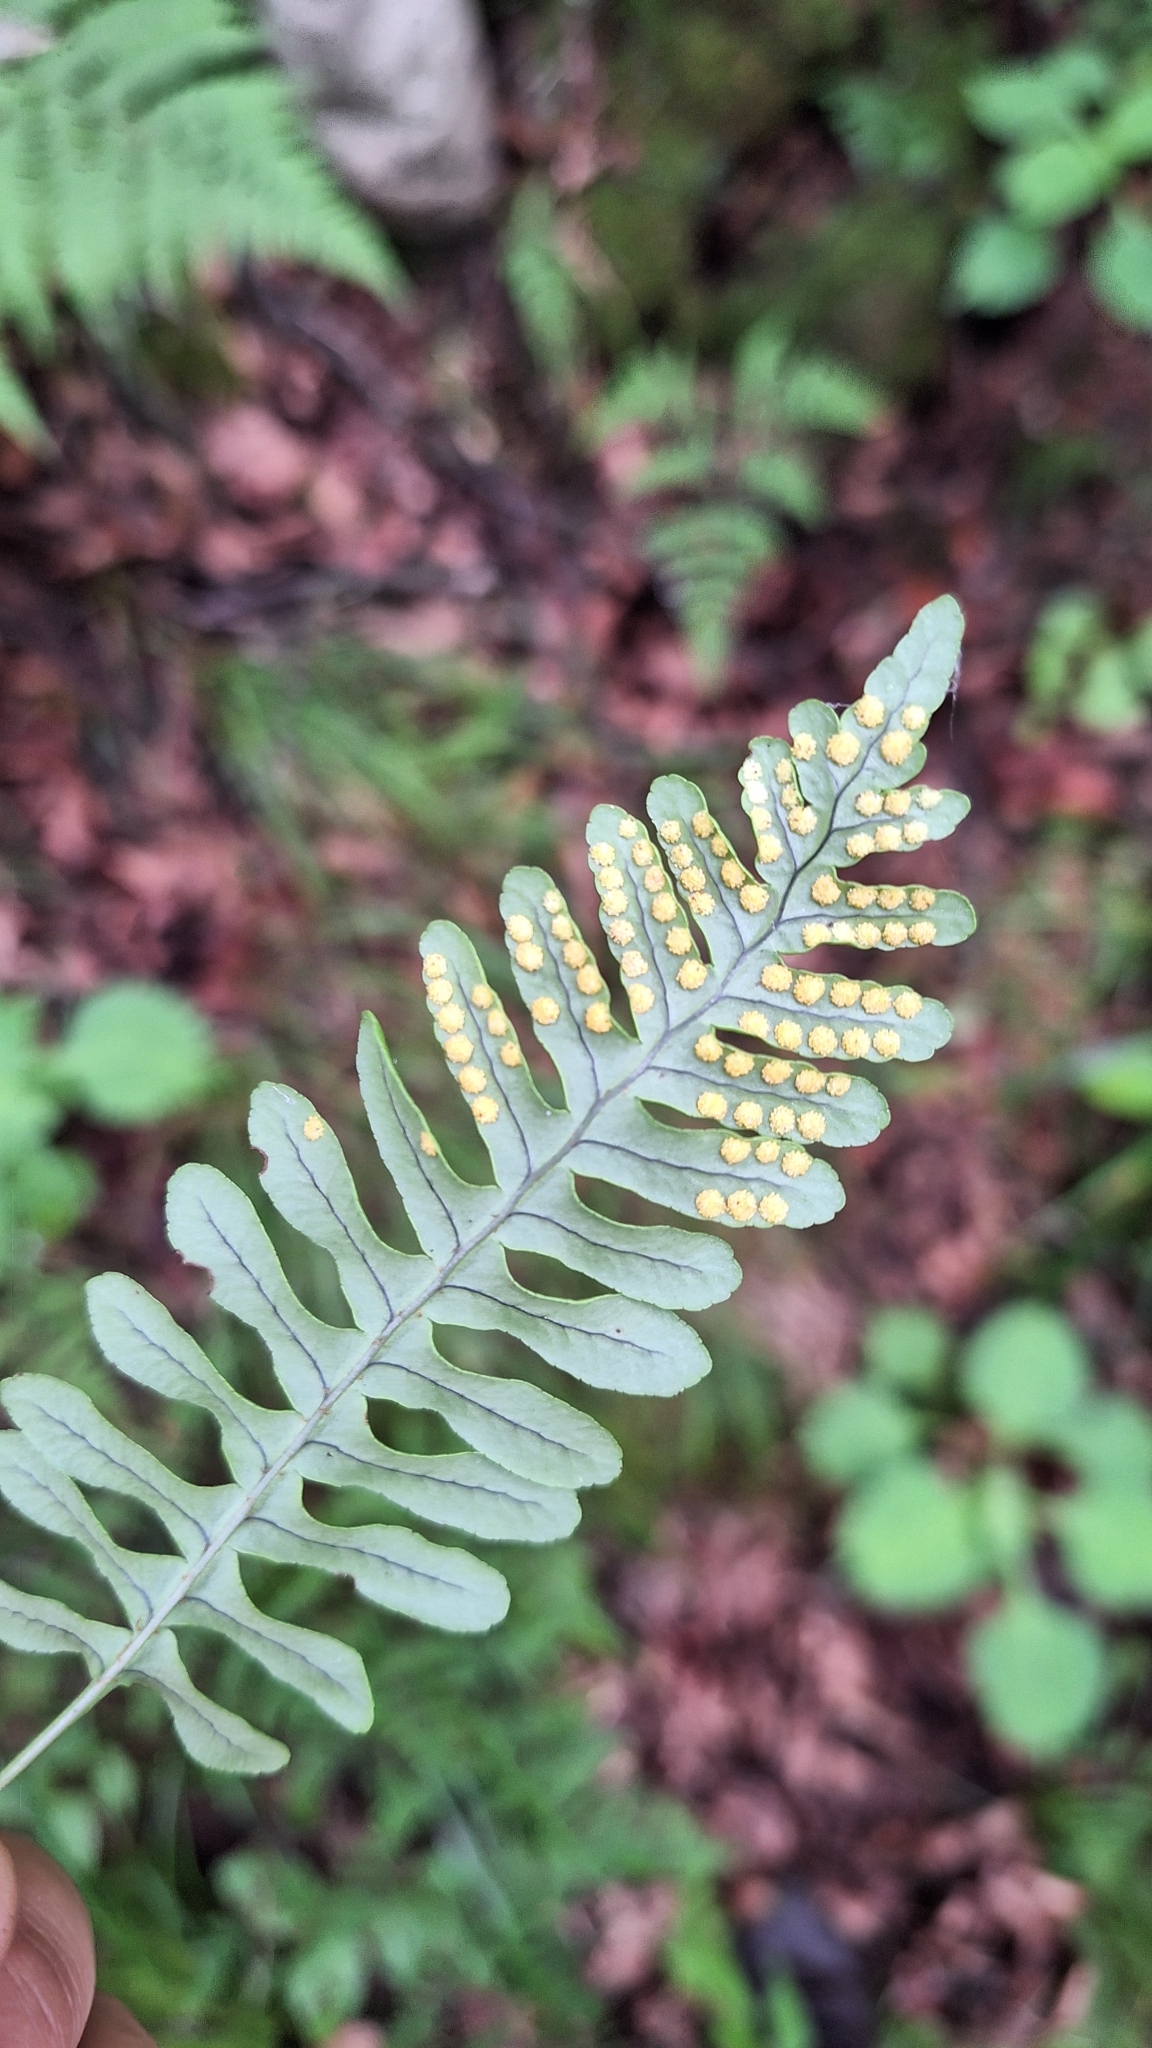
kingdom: Plantae
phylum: Tracheophyta
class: Polypodiopsida
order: Polypodiales
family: Polypodiaceae
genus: Polypodium
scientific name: Polypodium sibiricum
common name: Siberian polypody
